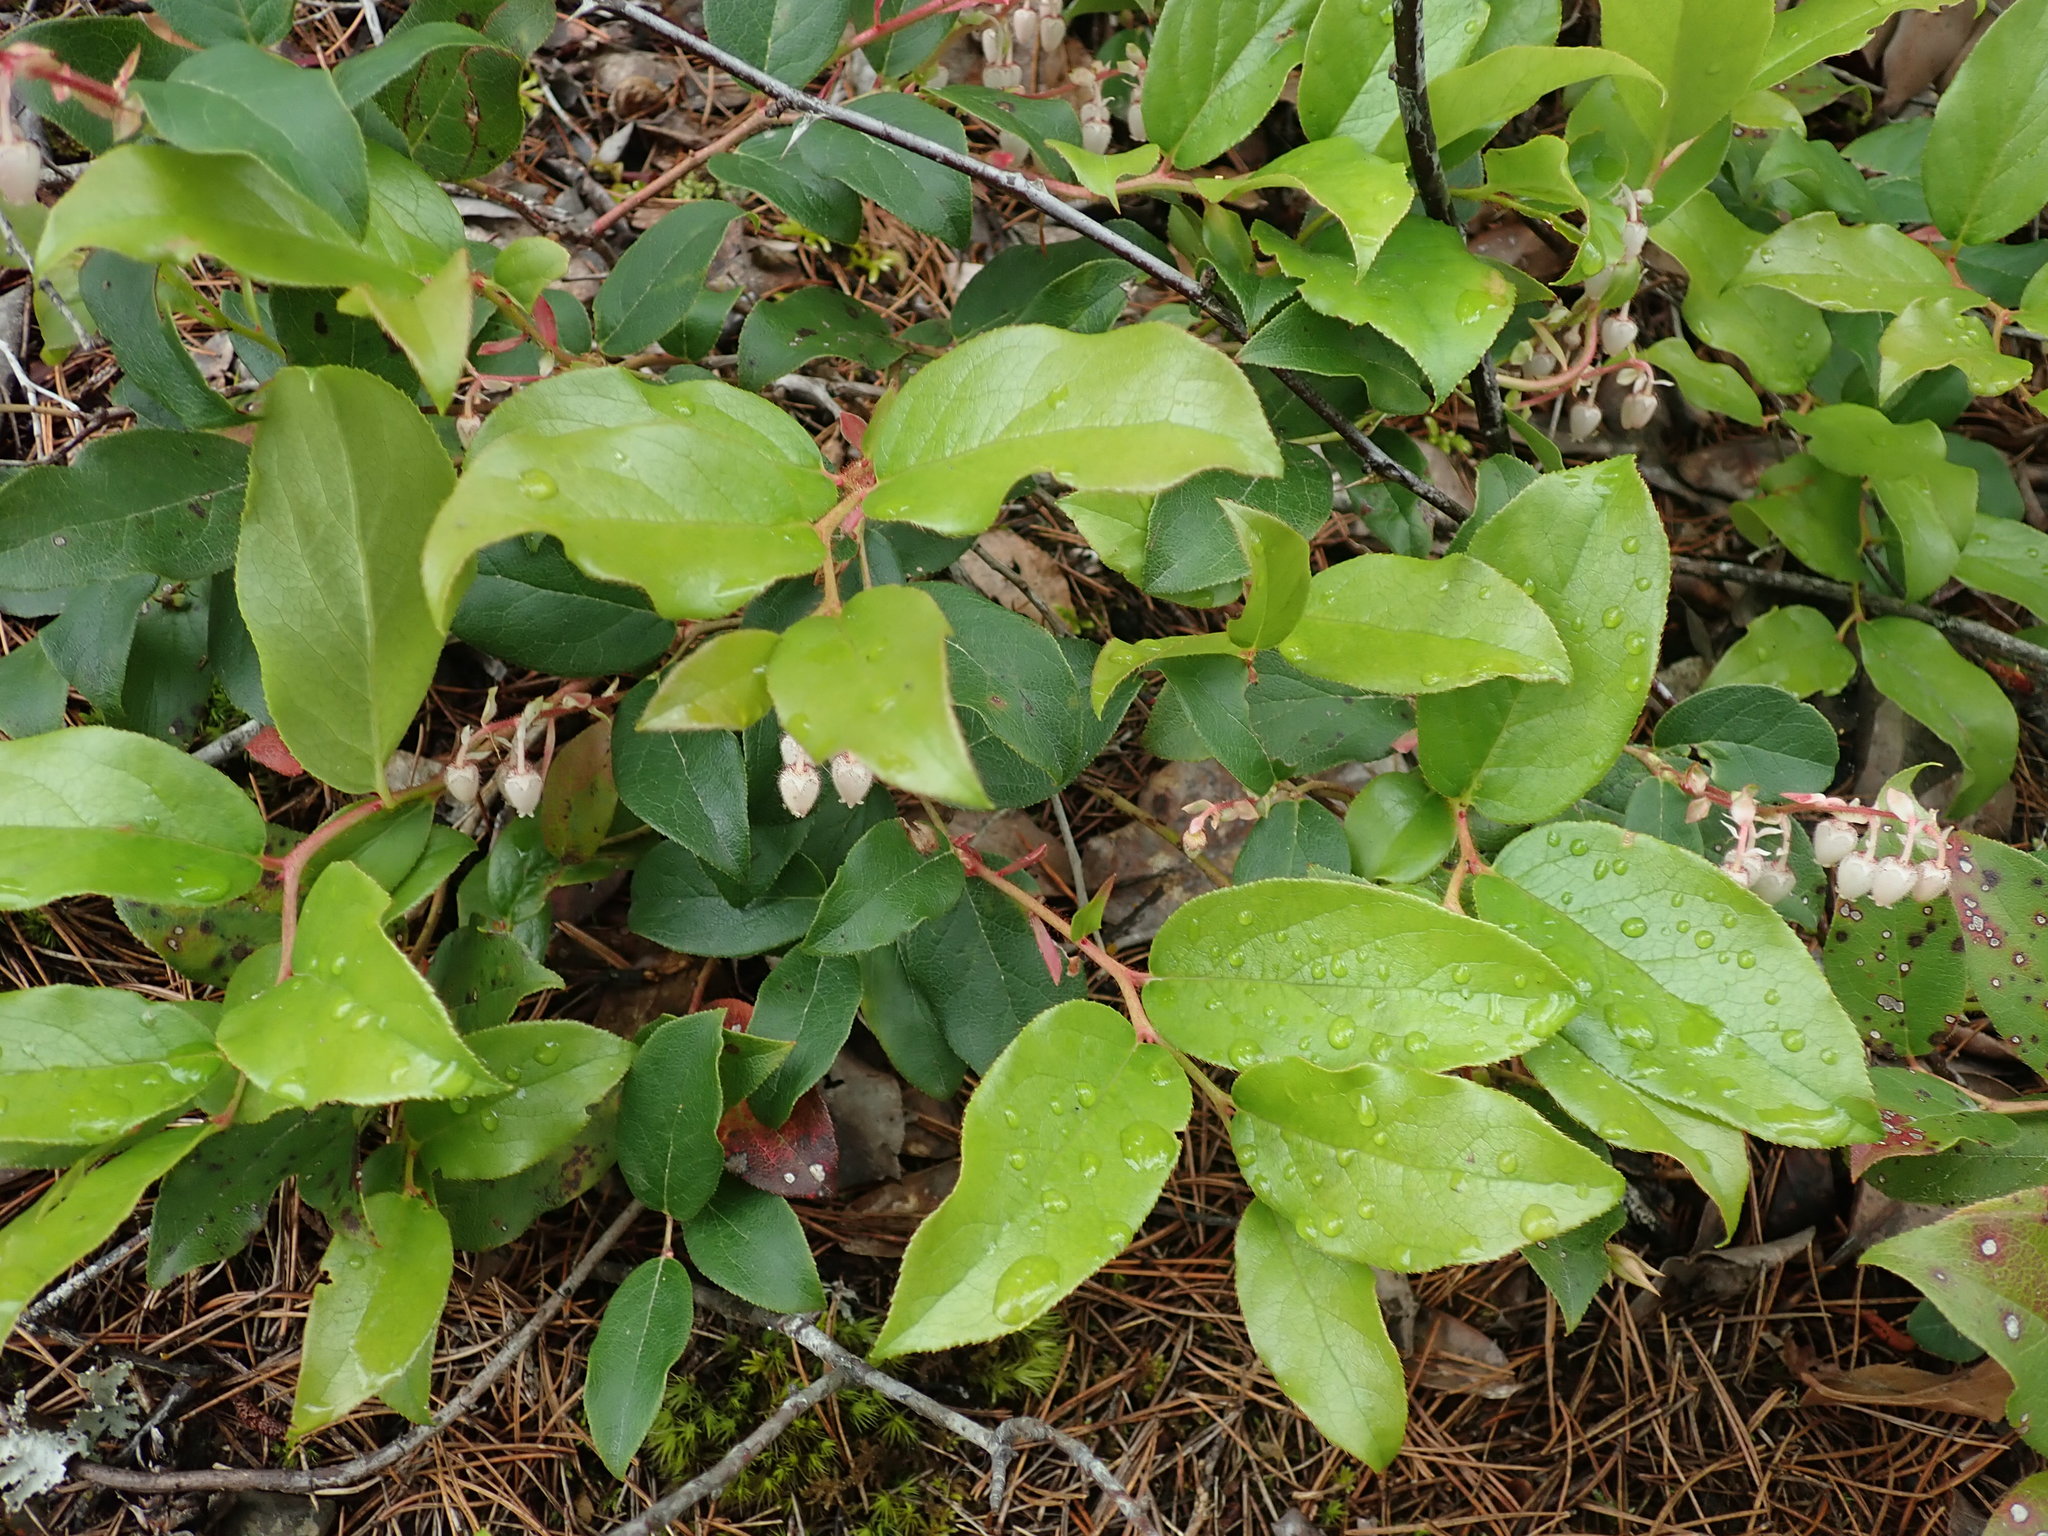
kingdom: Plantae
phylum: Tracheophyta
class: Magnoliopsida
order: Ericales
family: Ericaceae
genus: Gaultheria
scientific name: Gaultheria shallon
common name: Shallon
